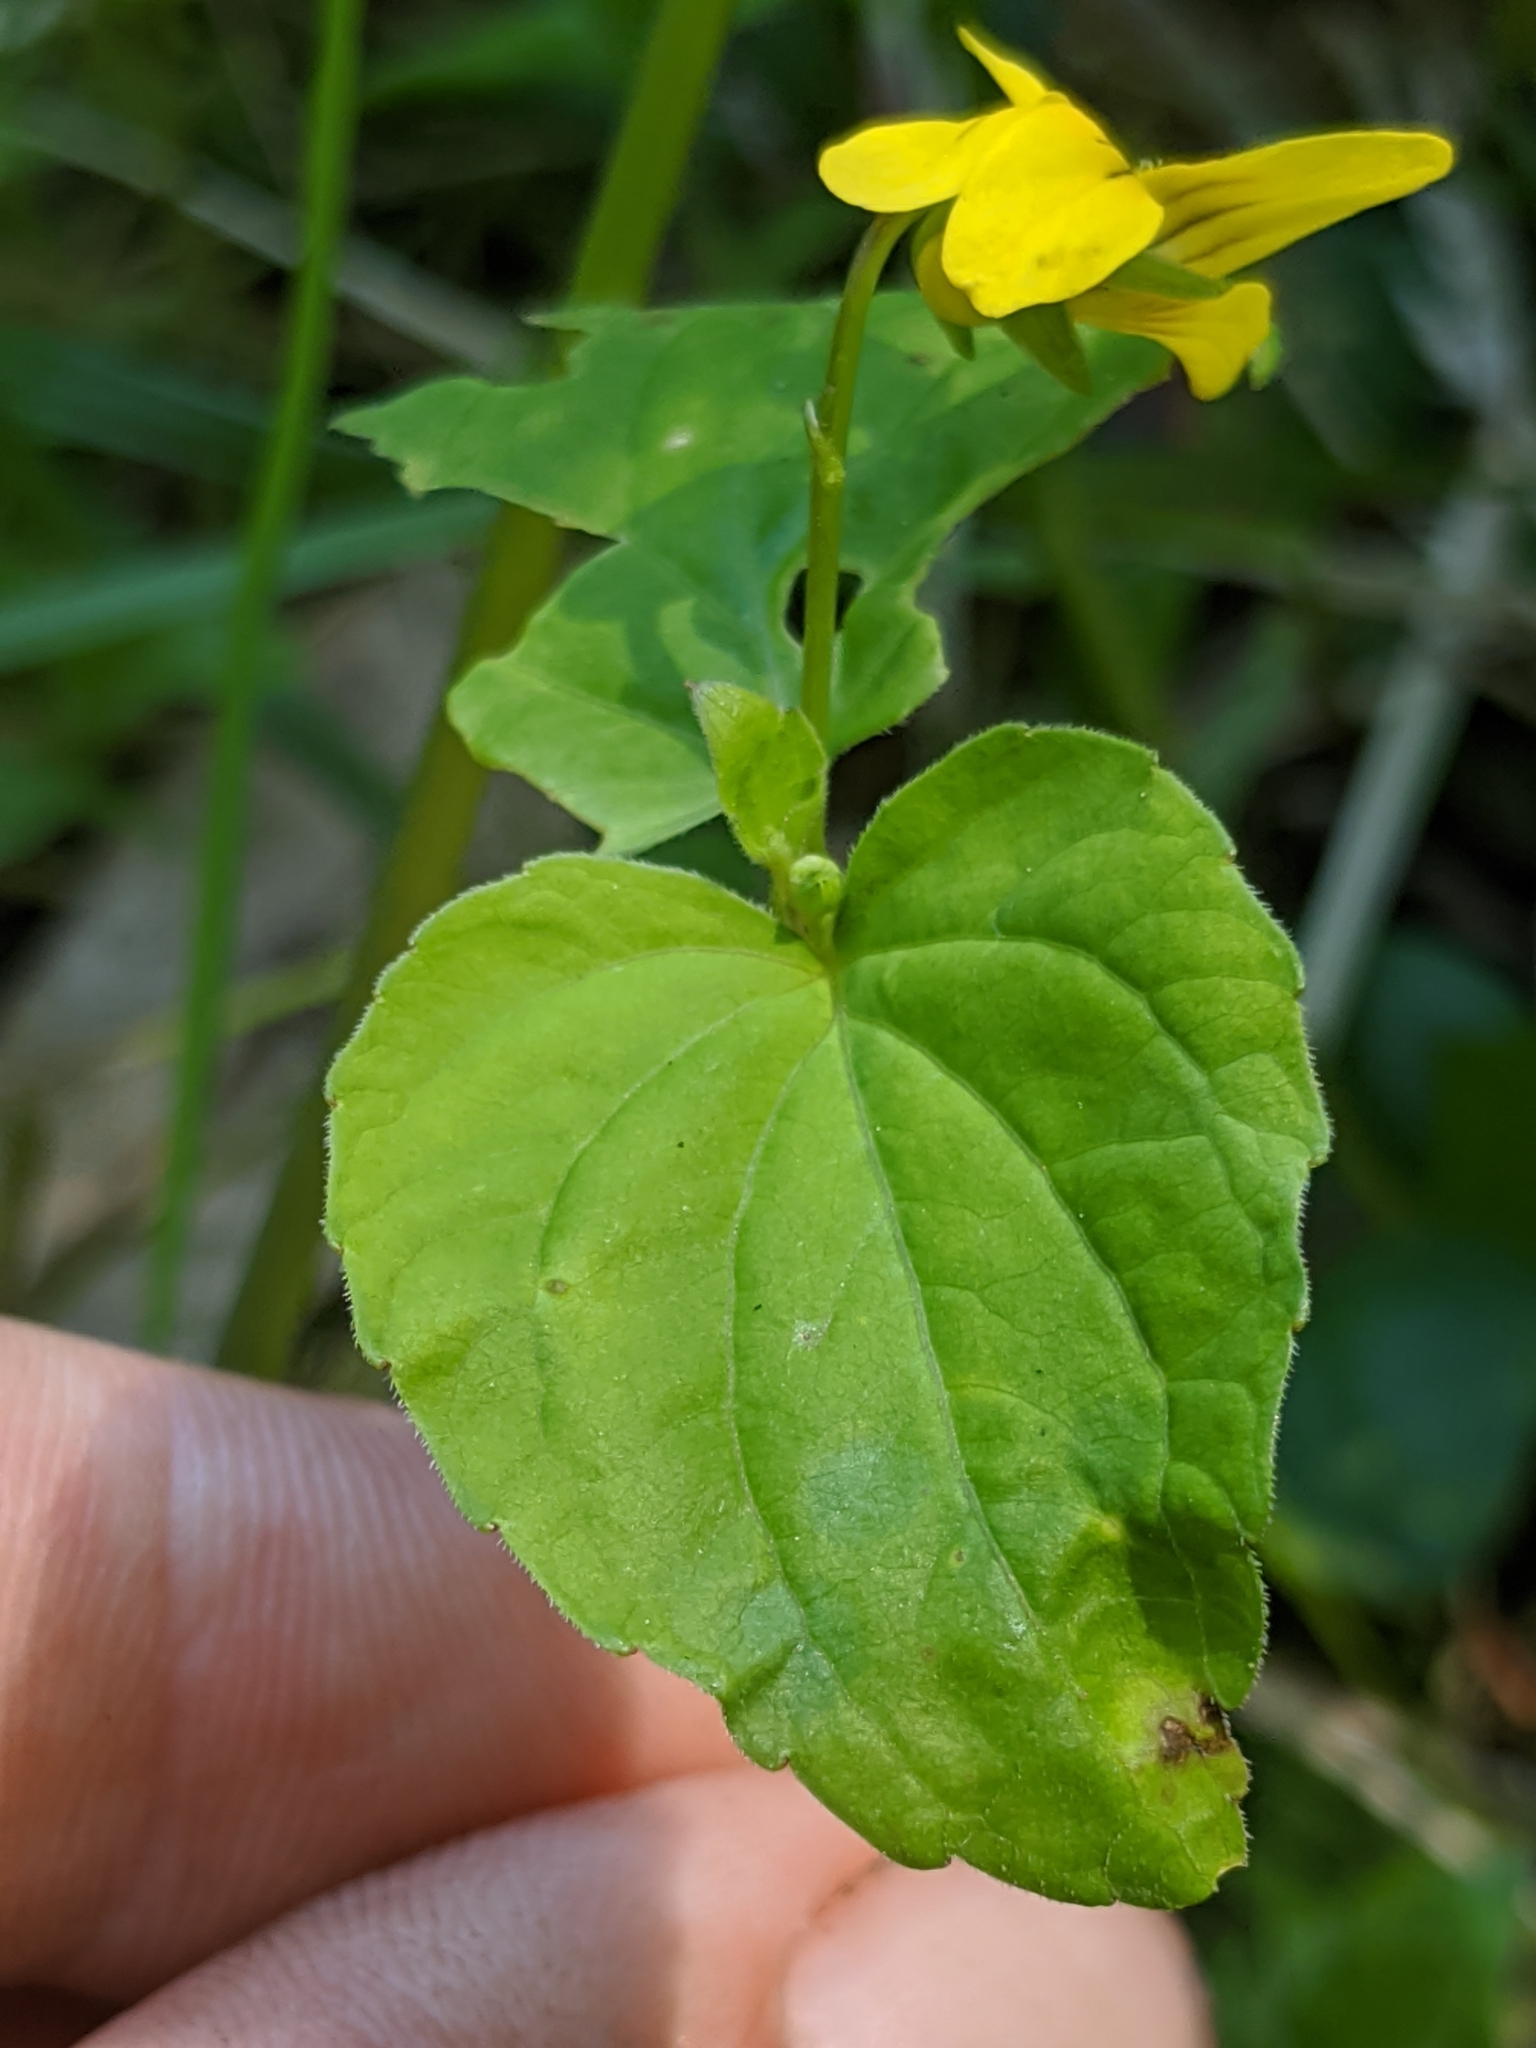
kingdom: Plantae
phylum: Tracheophyta
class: Magnoliopsida
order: Malpighiales
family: Violaceae
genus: Viola
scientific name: Viola glabella
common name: Stream violet
